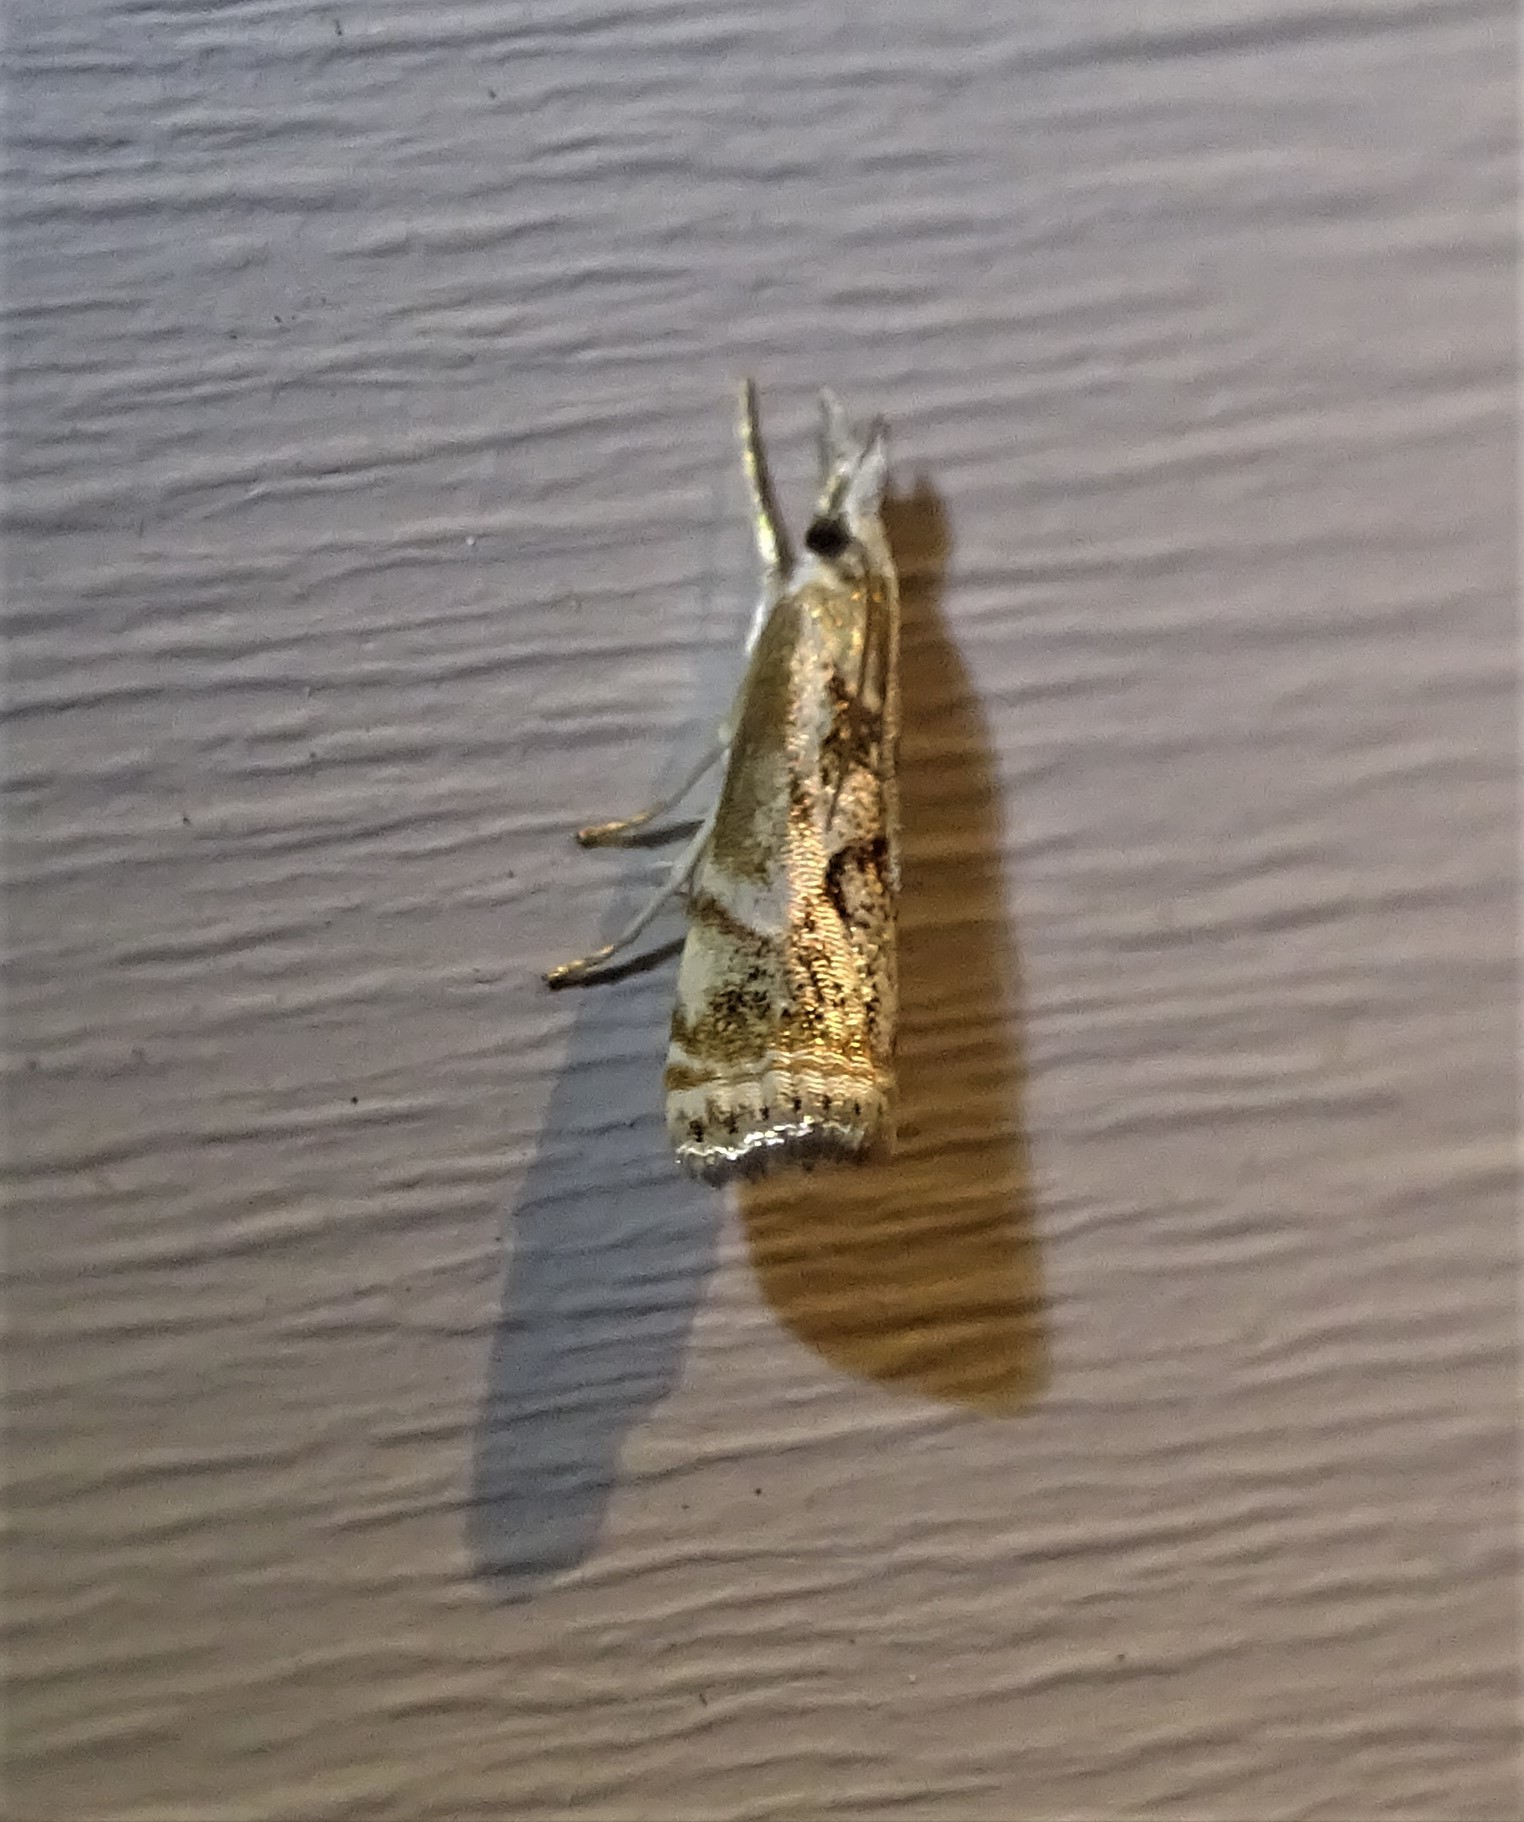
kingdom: Animalia
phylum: Arthropoda
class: Insecta
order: Lepidoptera
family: Crambidae
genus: Microcrambus
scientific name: Microcrambus elegans
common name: Elegant grass-veneer
